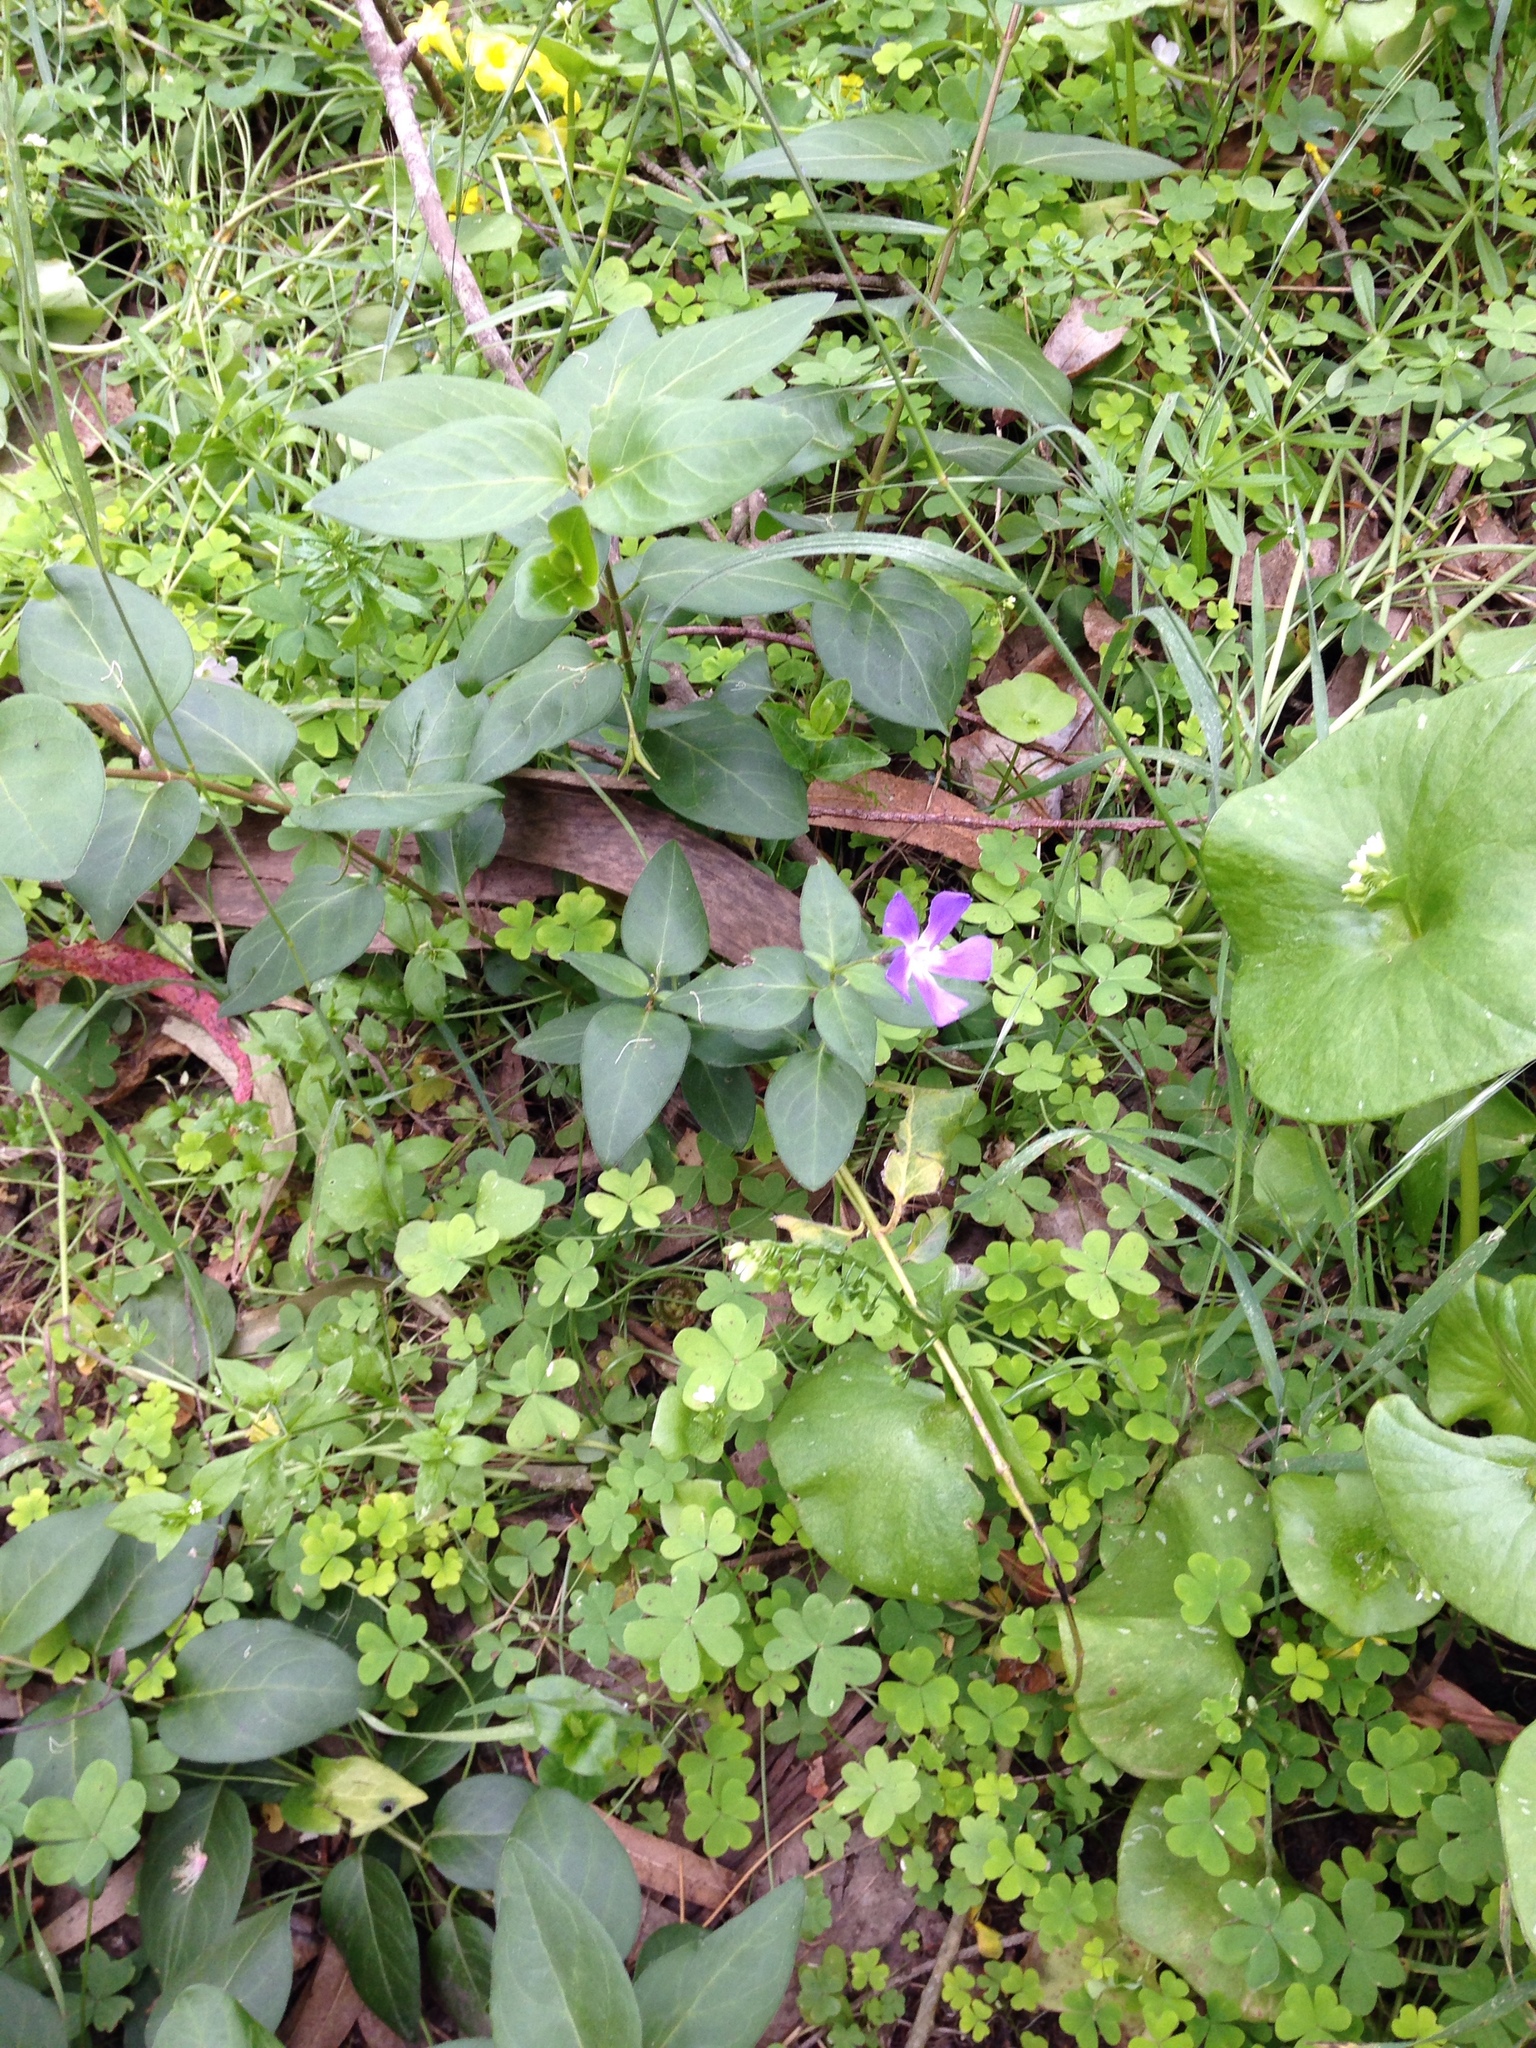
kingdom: Plantae
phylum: Tracheophyta
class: Magnoliopsida
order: Gentianales
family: Apocynaceae
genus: Vinca
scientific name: Vinca major
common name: Greater periwinkle
